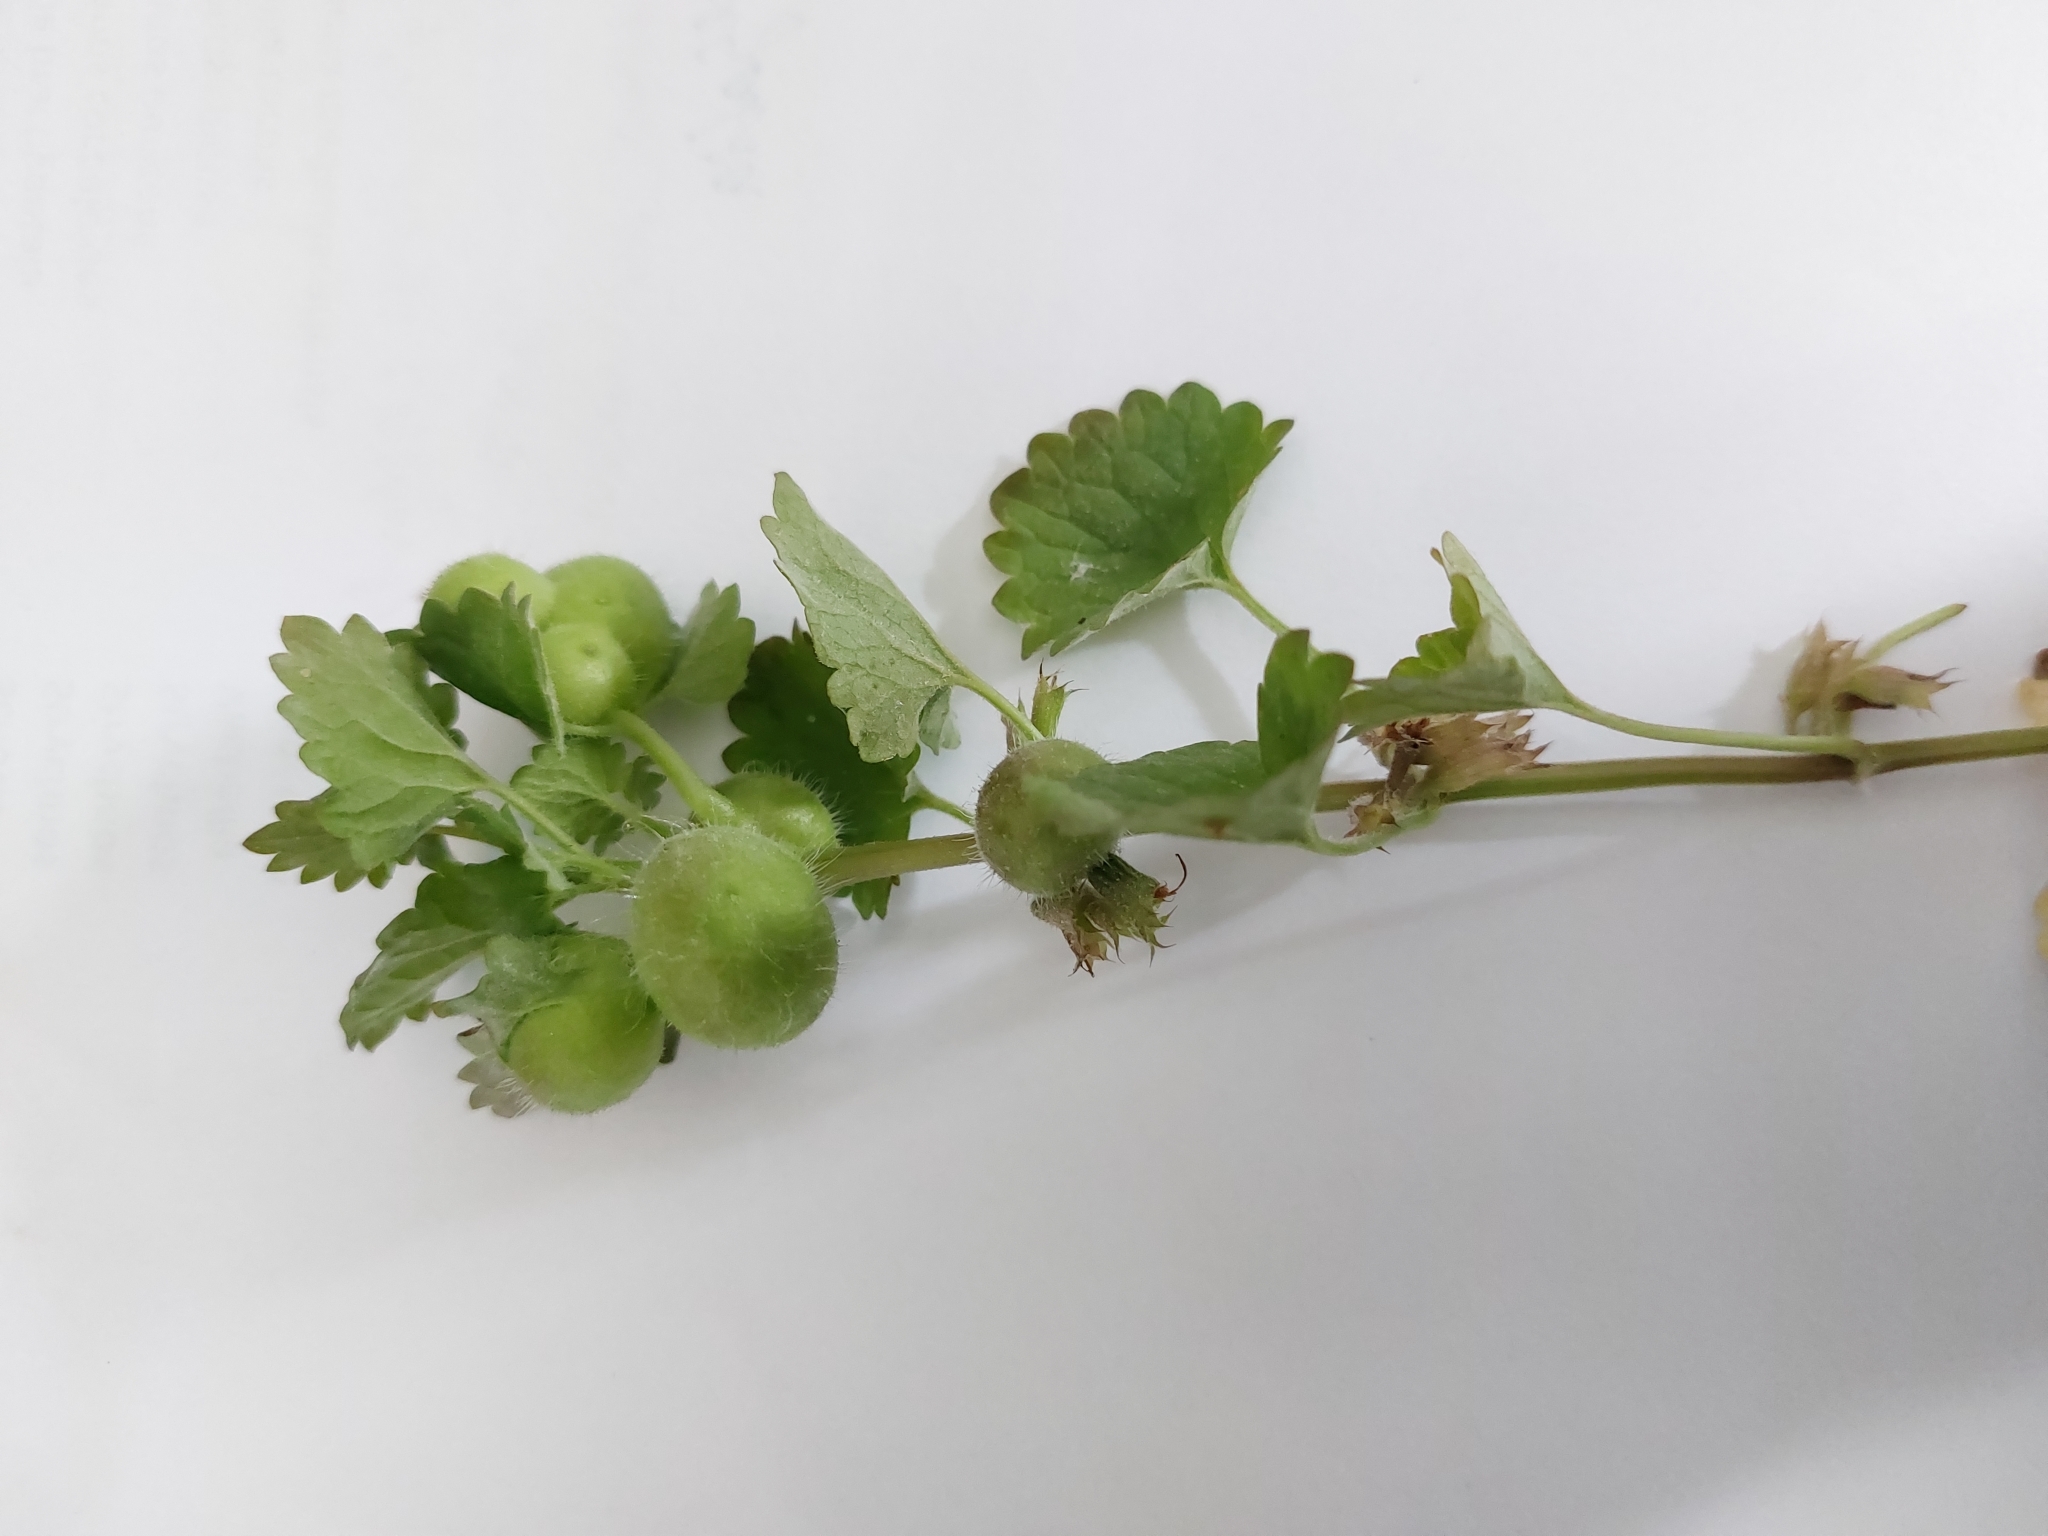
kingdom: Animalia
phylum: Arthropoda
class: Insecta
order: Hymenoptera
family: Cynipidae
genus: Liposthenes
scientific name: Liposthenes glechomae
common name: Gall wasp
